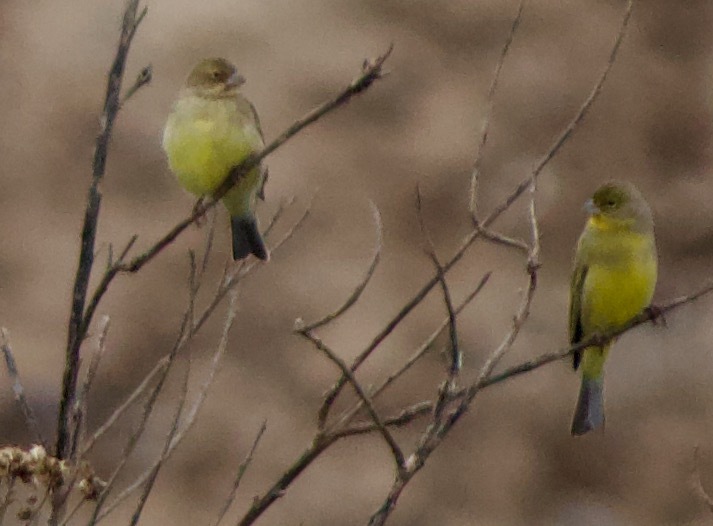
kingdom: Animalia
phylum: Chordata
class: Aves
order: Passeriformes
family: Thraupidae
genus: Sicalis
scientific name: Sicalis luteola
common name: Grassland yellow-finch
